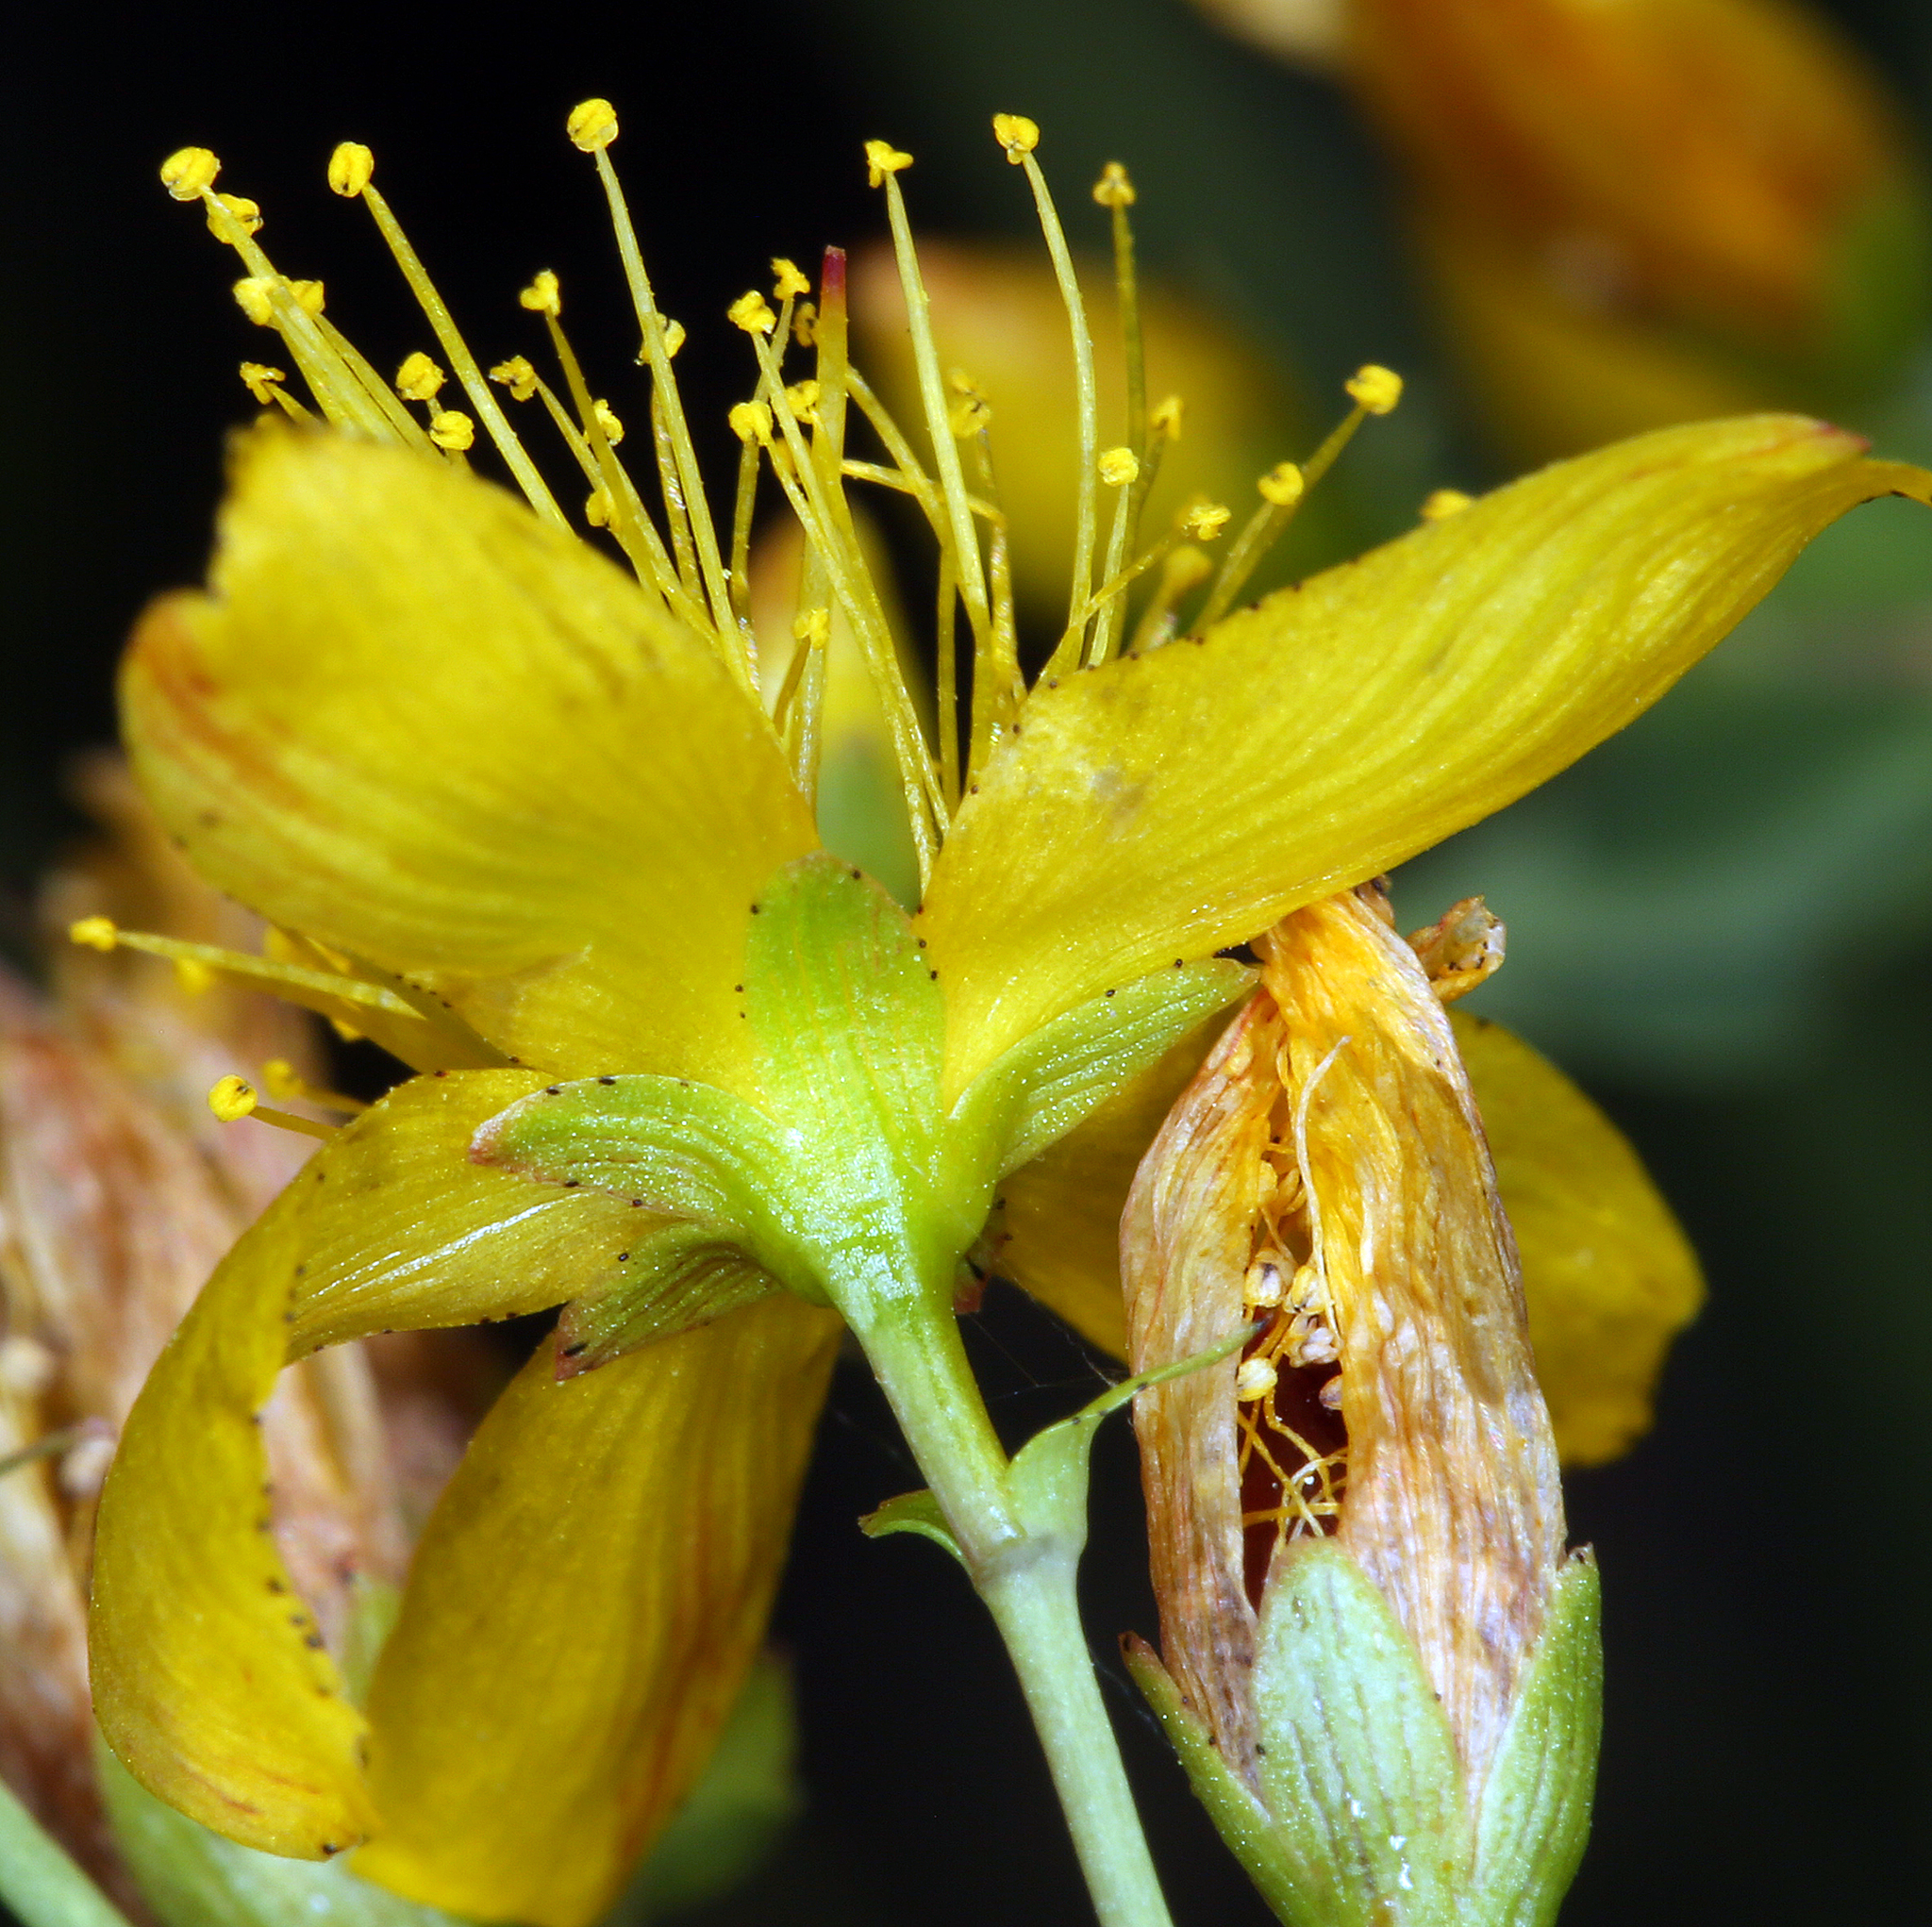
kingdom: Plantae
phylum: Tracheophyta
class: Magnoliopsida
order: Malpighiales
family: Hypericaceae
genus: Hypericum
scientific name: Hypericum scouleri
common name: Scouler's st. john's-wort
